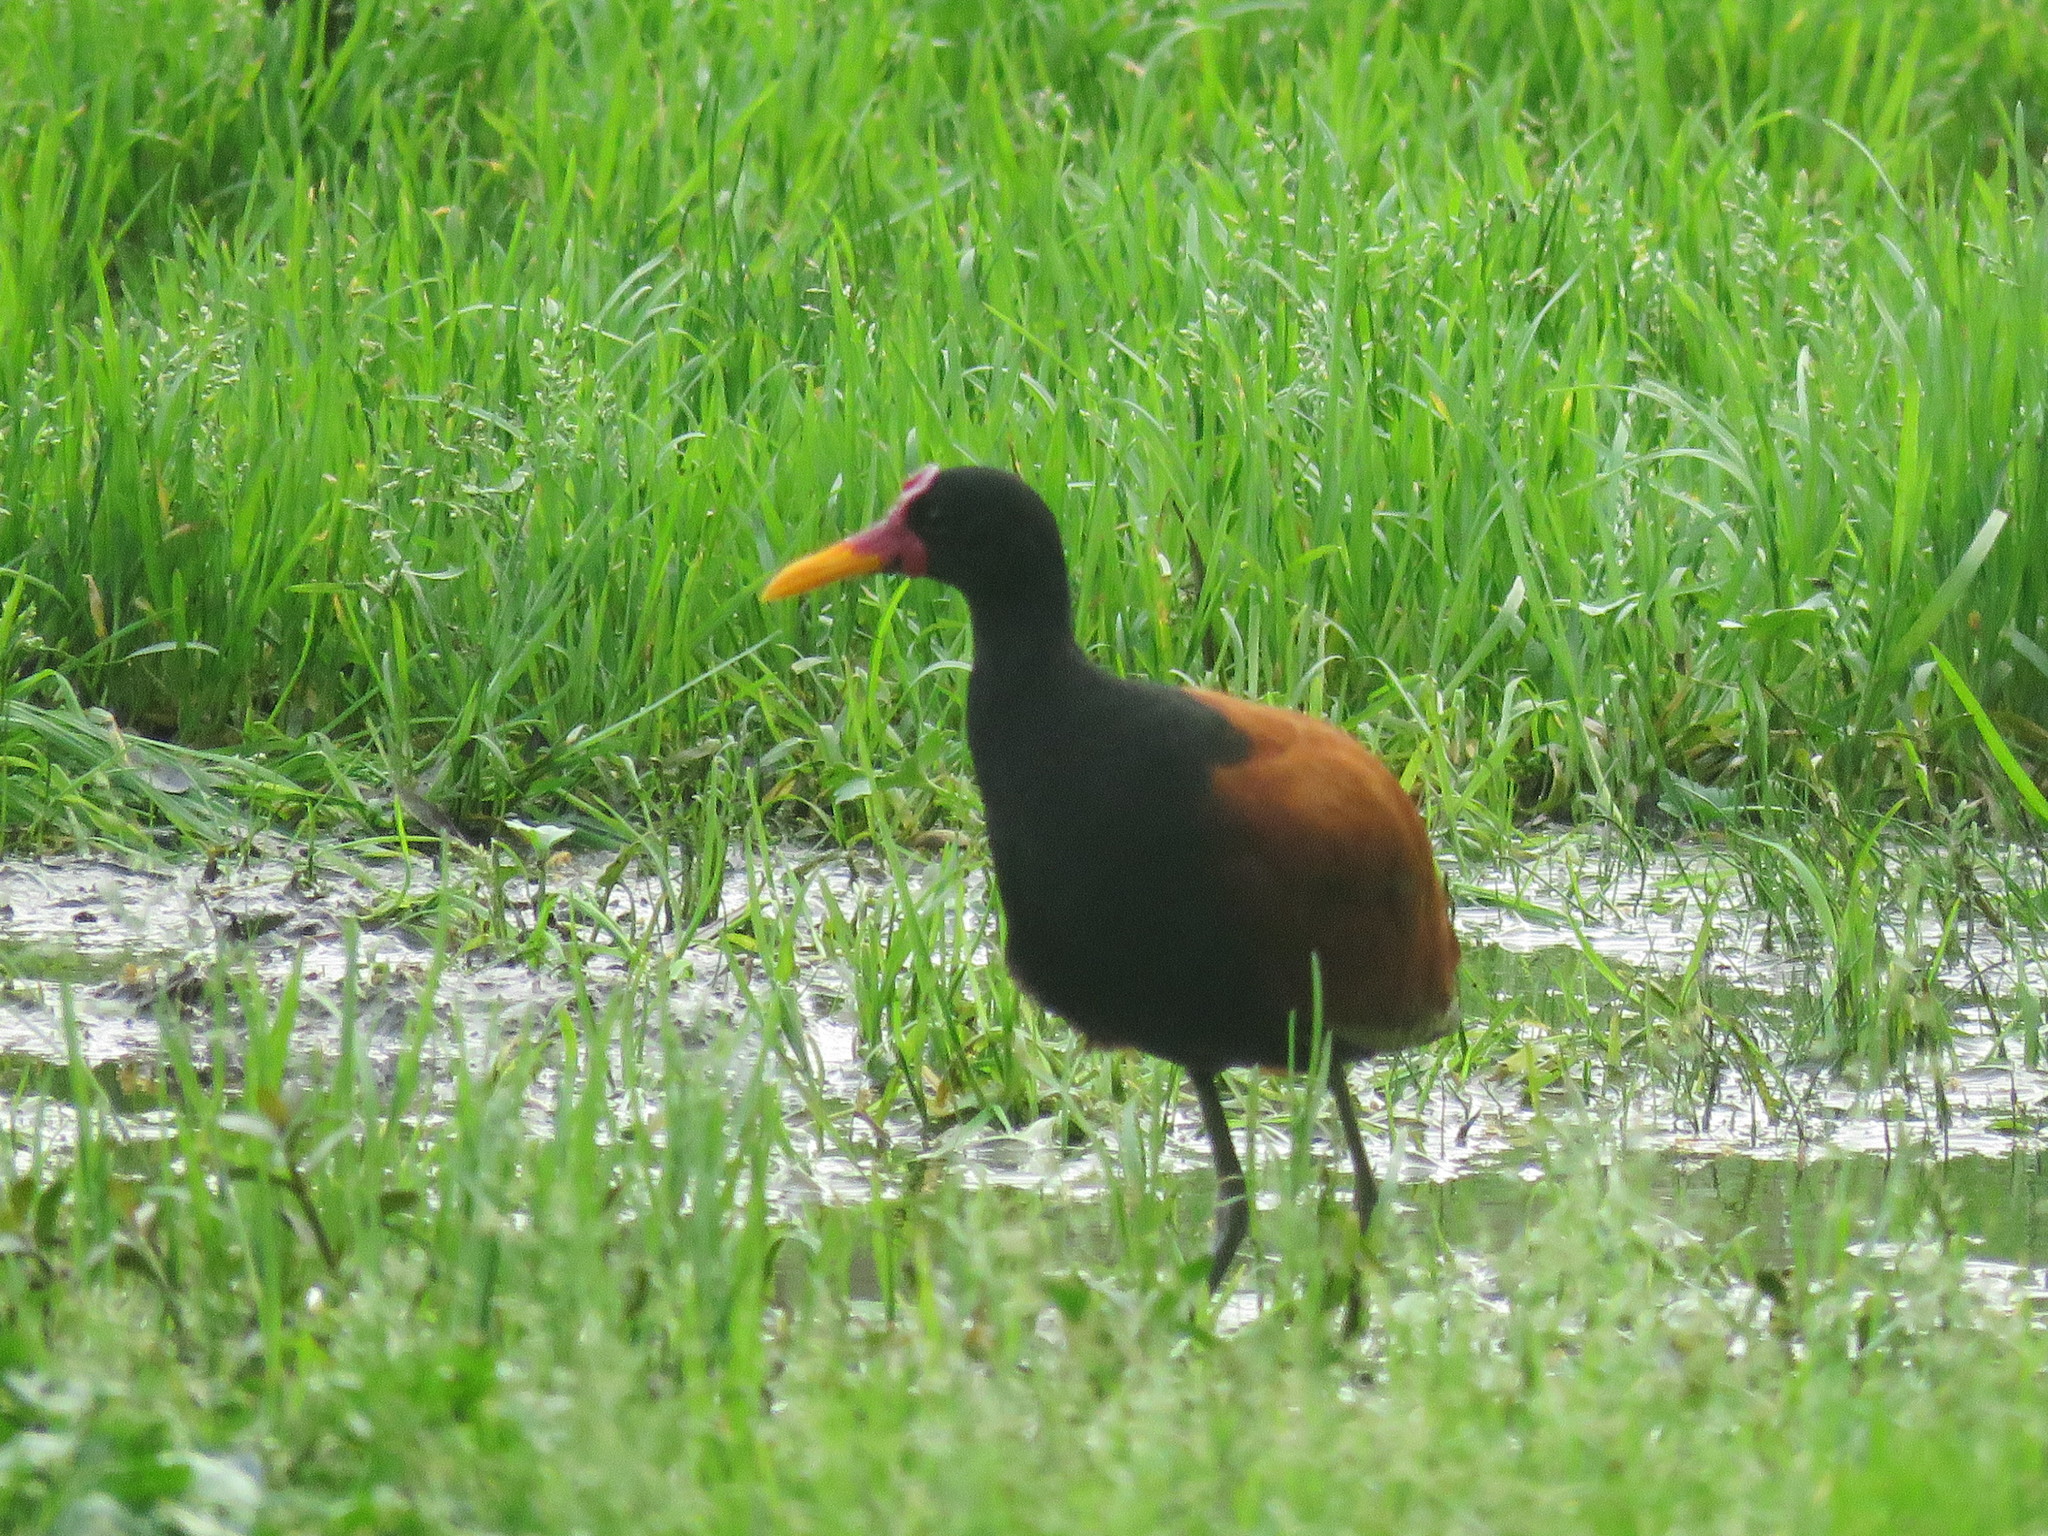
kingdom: Animalia
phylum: Chordata
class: Aves
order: Charadriiformes
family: Jacanidae
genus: Jacana
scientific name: Jacana jacana
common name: Wattled jacana
